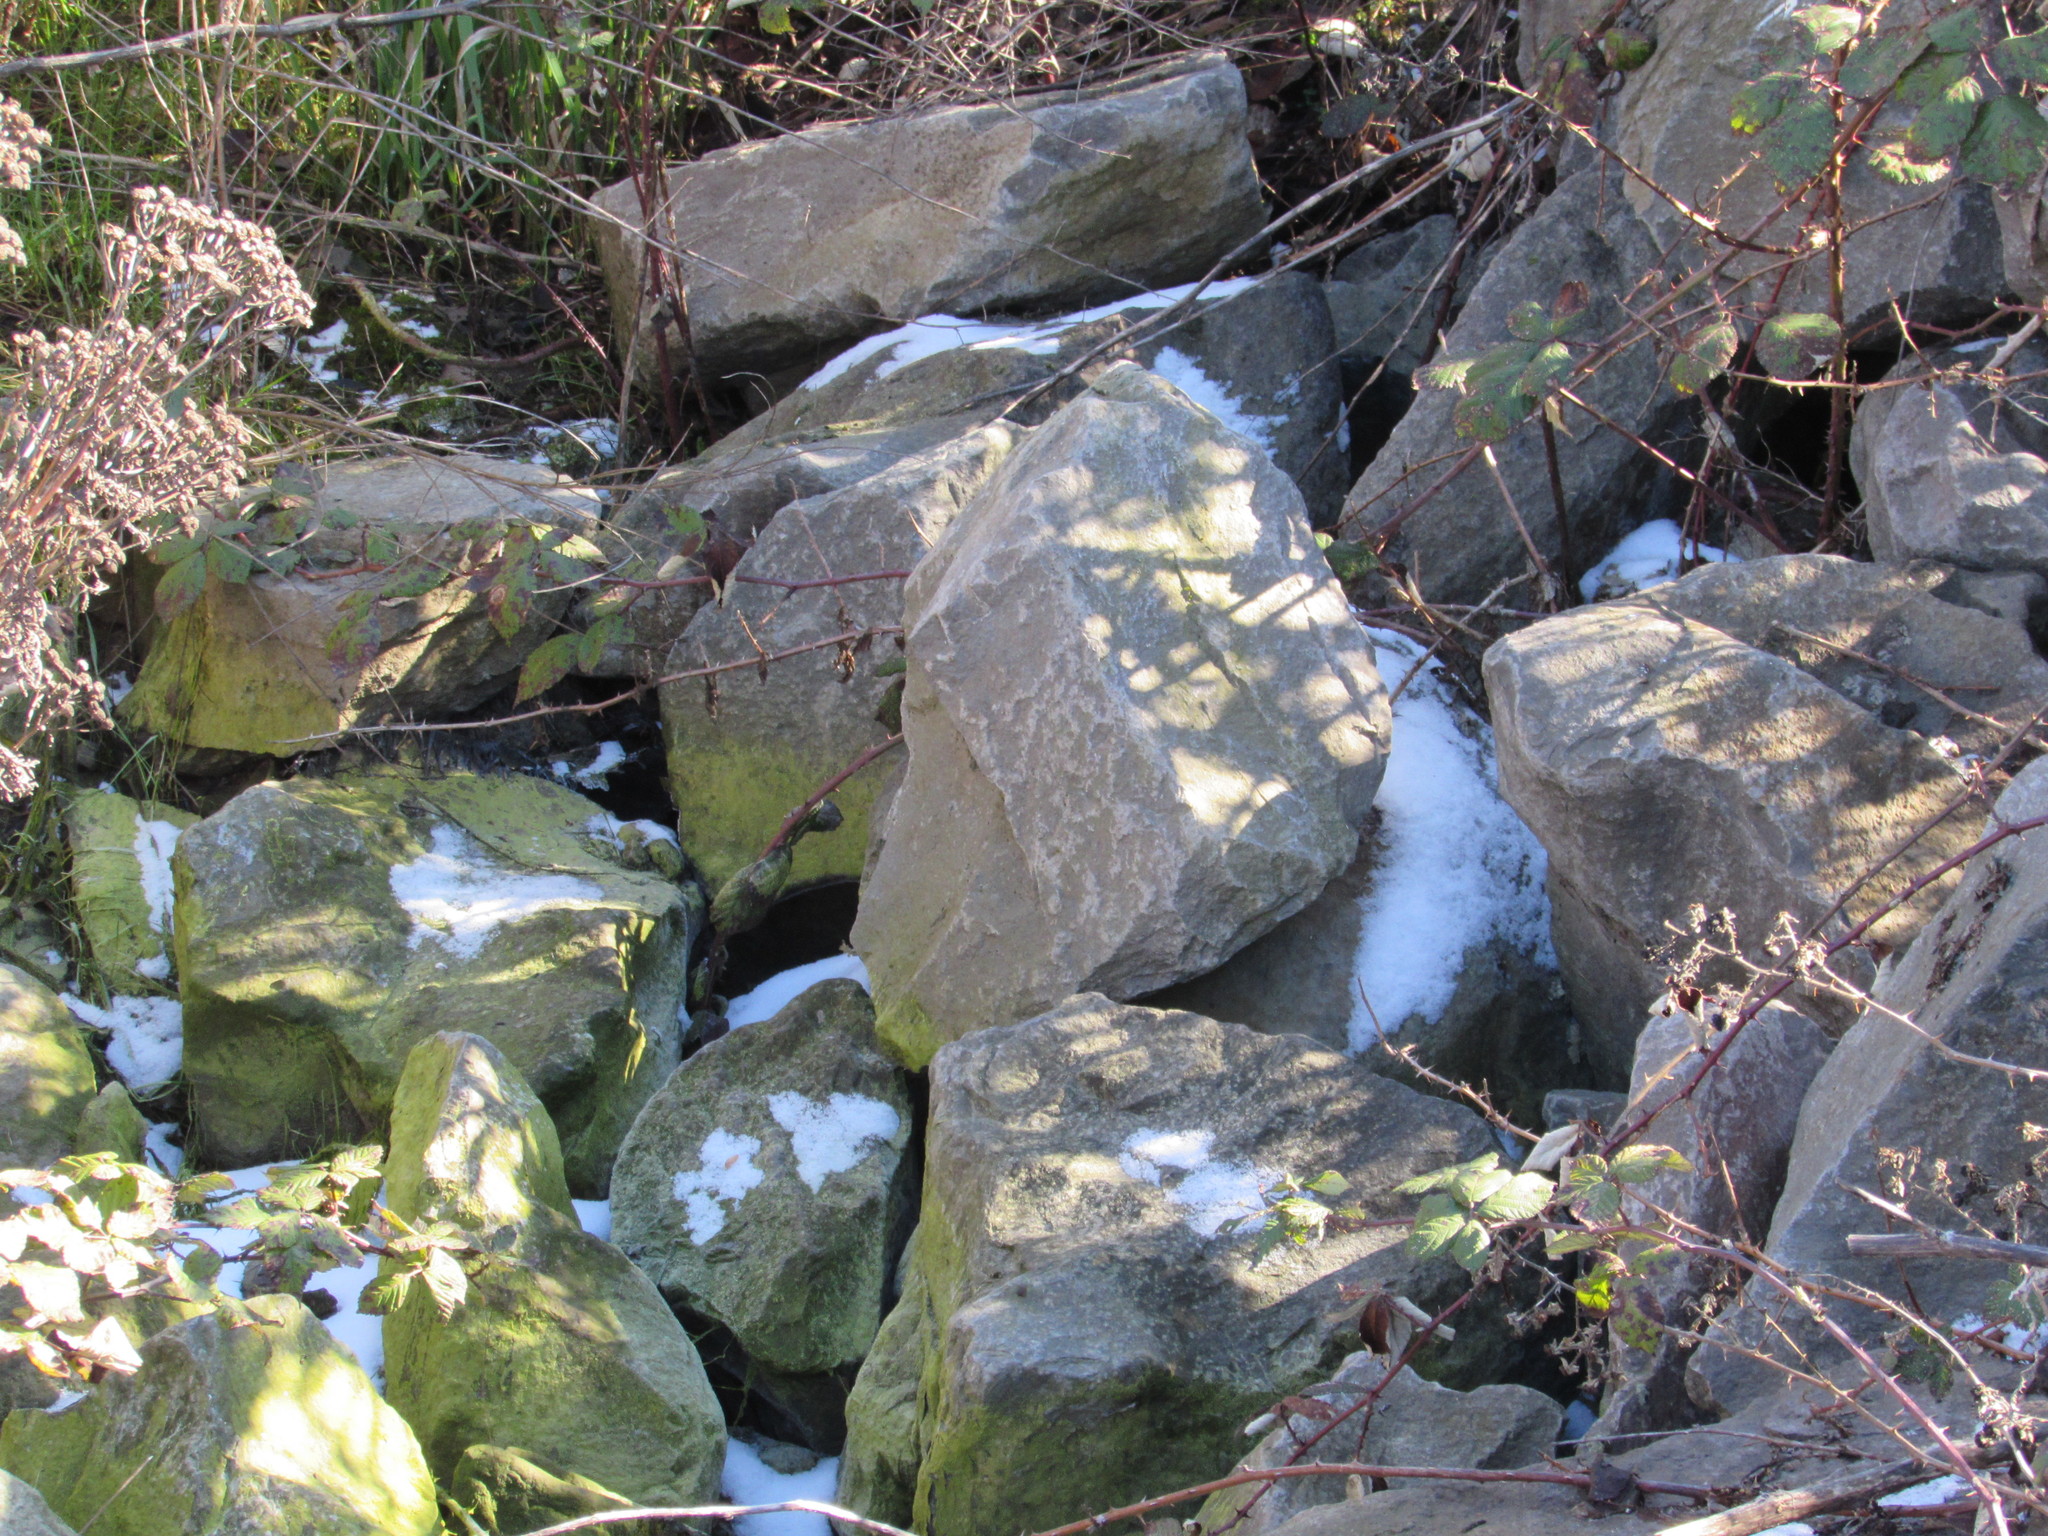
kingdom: Animalia
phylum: Chordata
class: Squamata
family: Colubridae
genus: Thamnophis
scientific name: Thamnophis sirtalis
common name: Common garter snake
